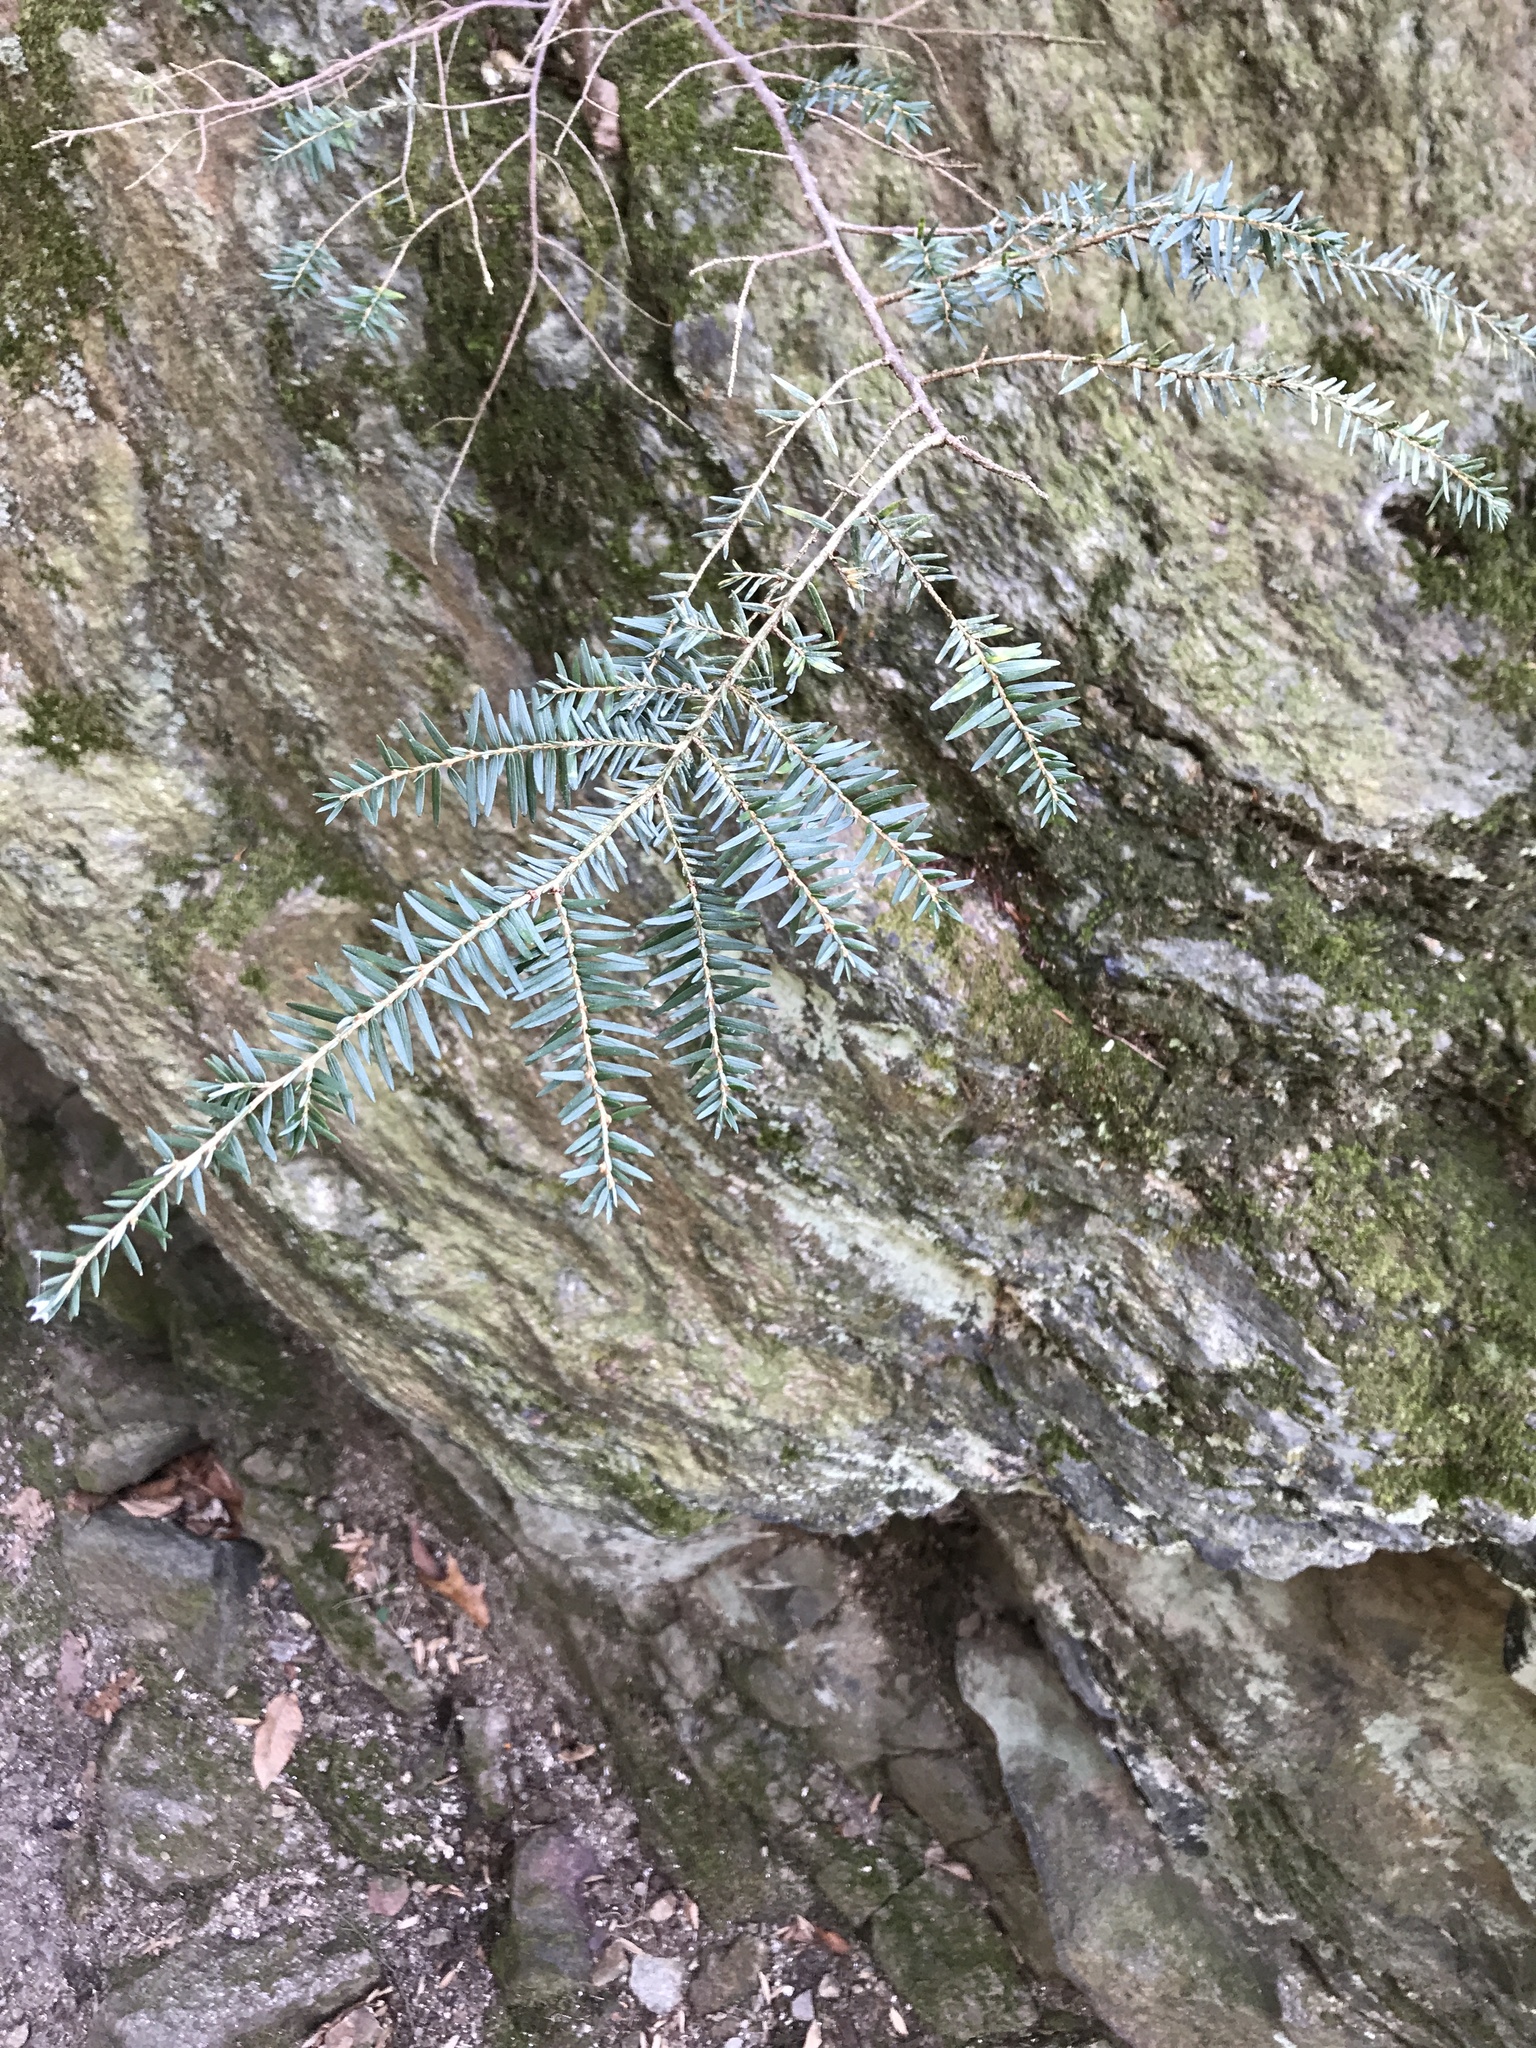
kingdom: Plantae
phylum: Tracheophyta
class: Pinopsida
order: Pinales
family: Pinaceae
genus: Tsuga
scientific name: Tsuga canadensis
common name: Eastern hemlock
